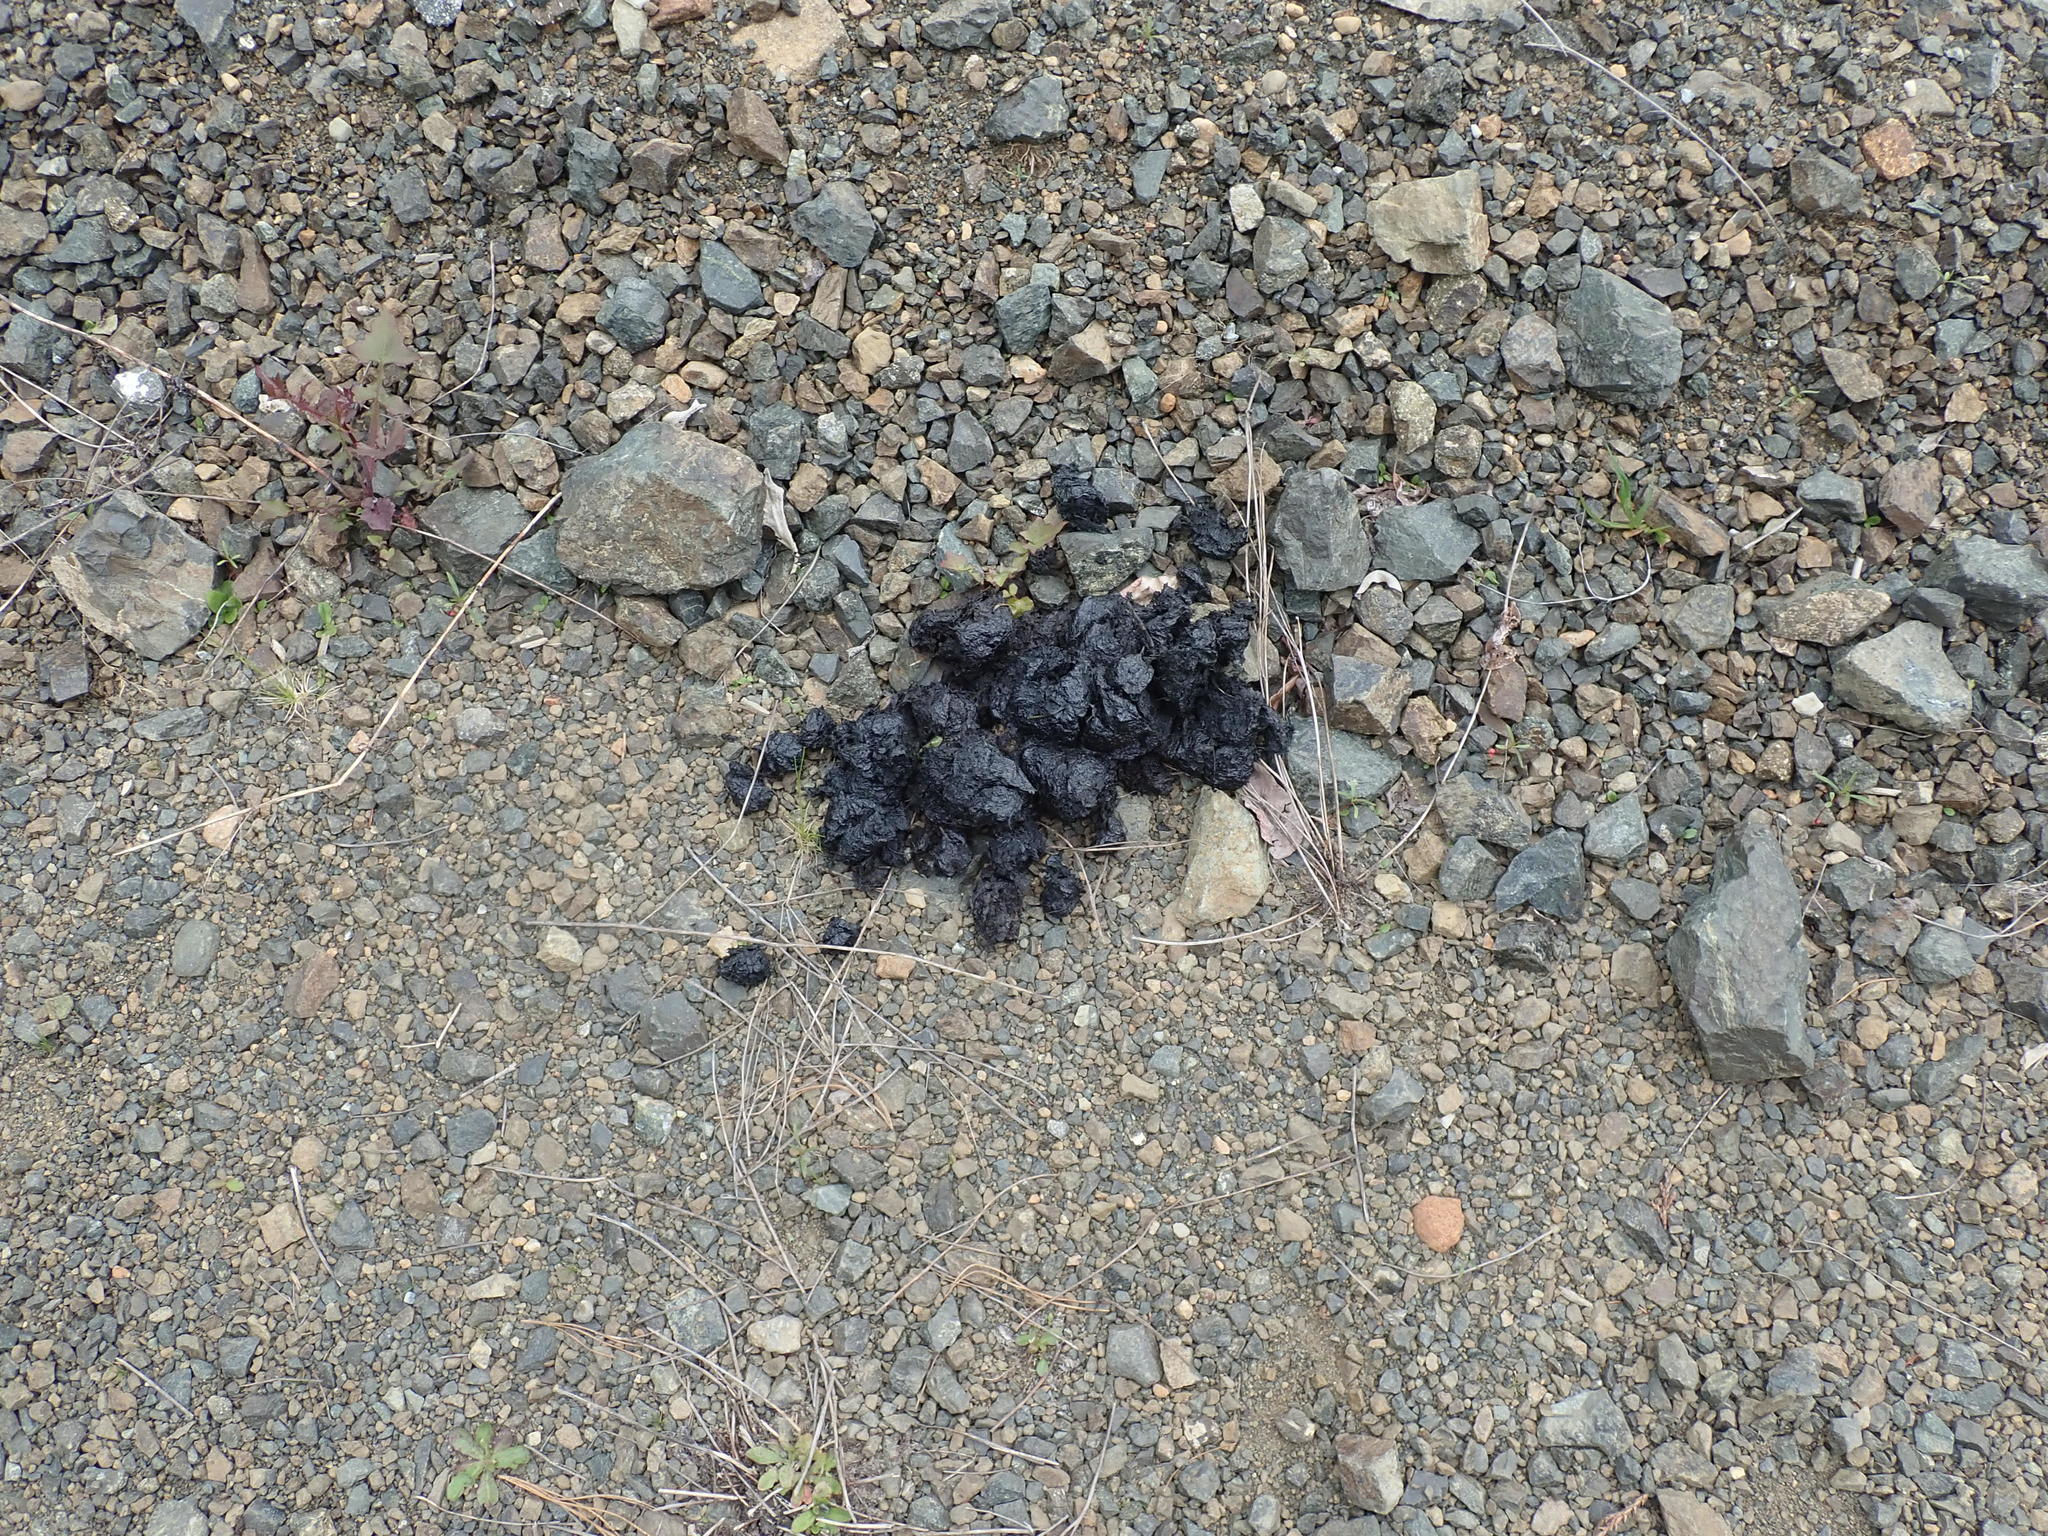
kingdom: Animalia
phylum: Chordata
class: Mammalia
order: Carnivora
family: Ursidae
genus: Ursus
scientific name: Ursus americanus
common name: American black bear
